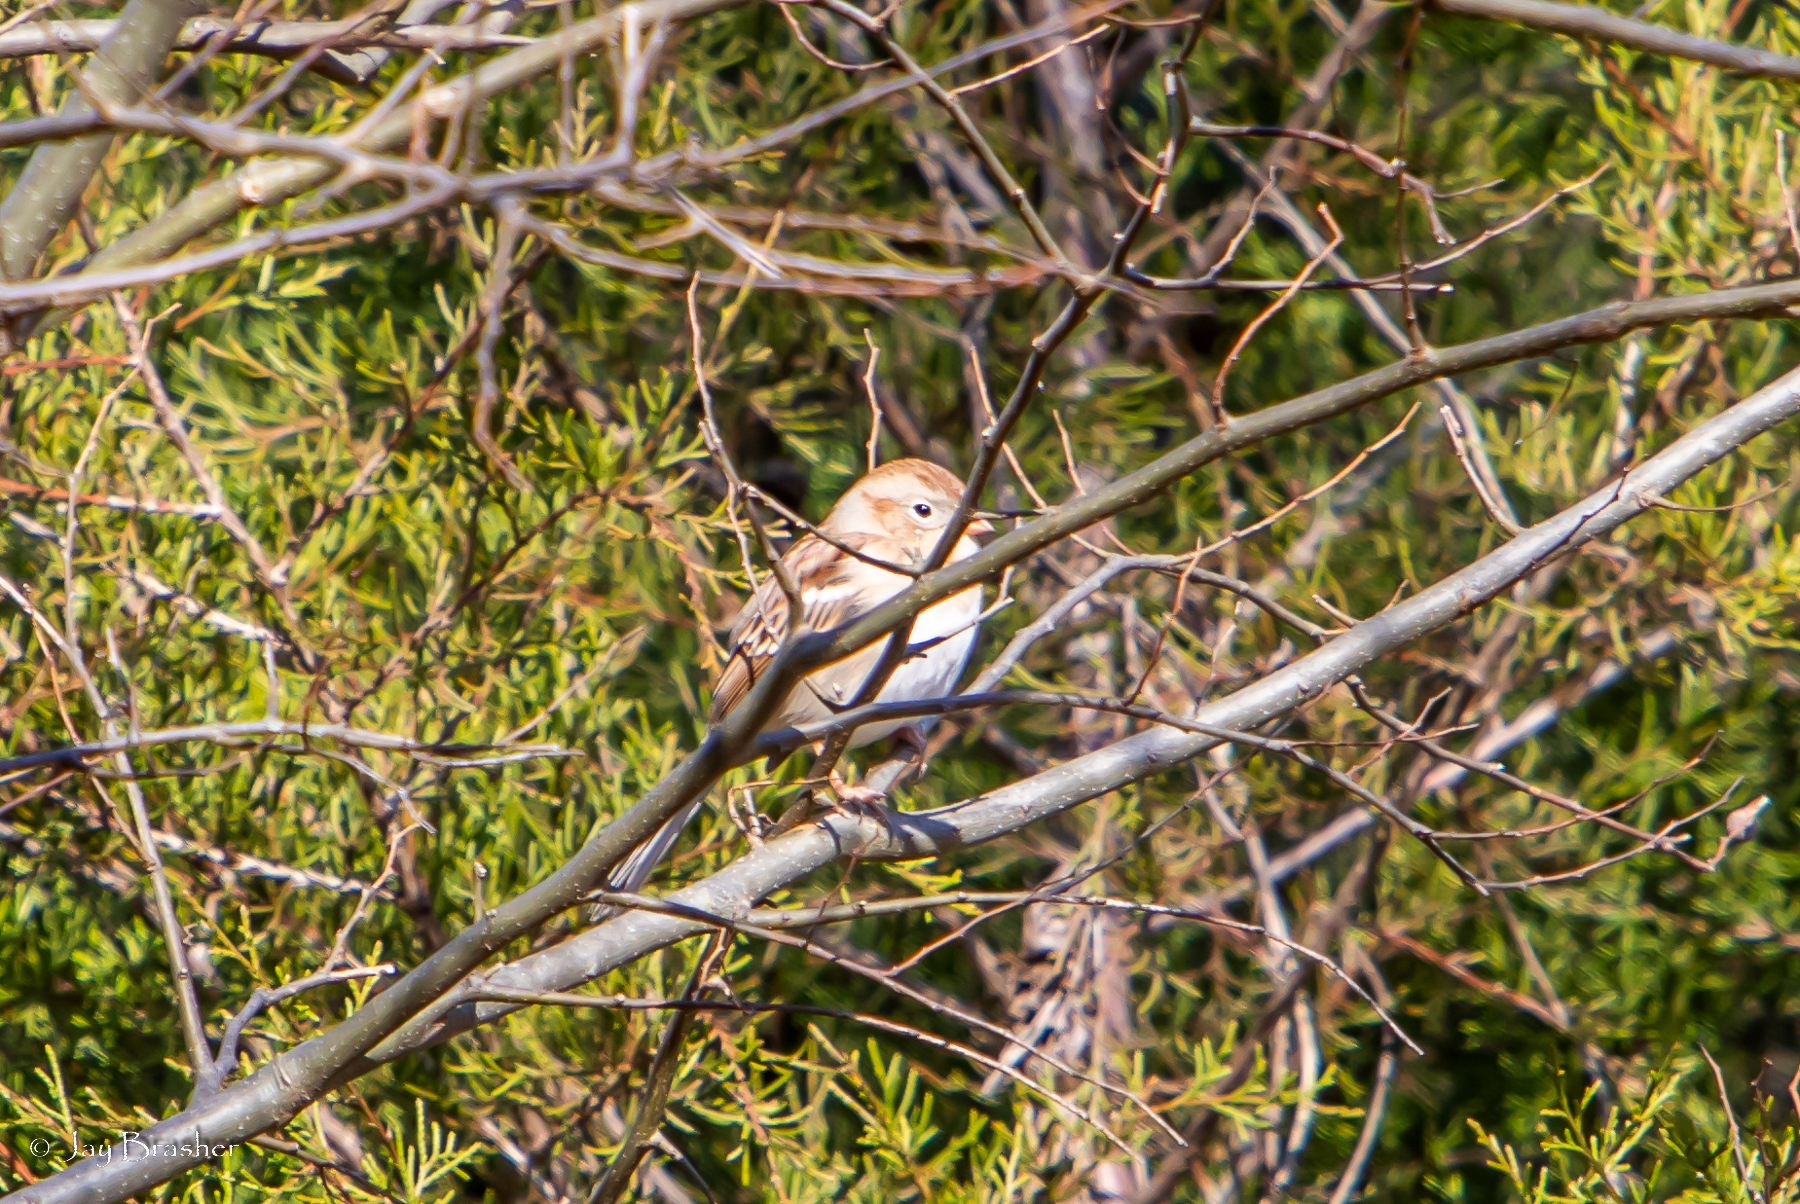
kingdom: Animalia
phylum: Chordata
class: Aves
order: Passeriformes
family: Passerellidae
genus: Spizella
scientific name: Spizella pusilla
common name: Field sparrow
